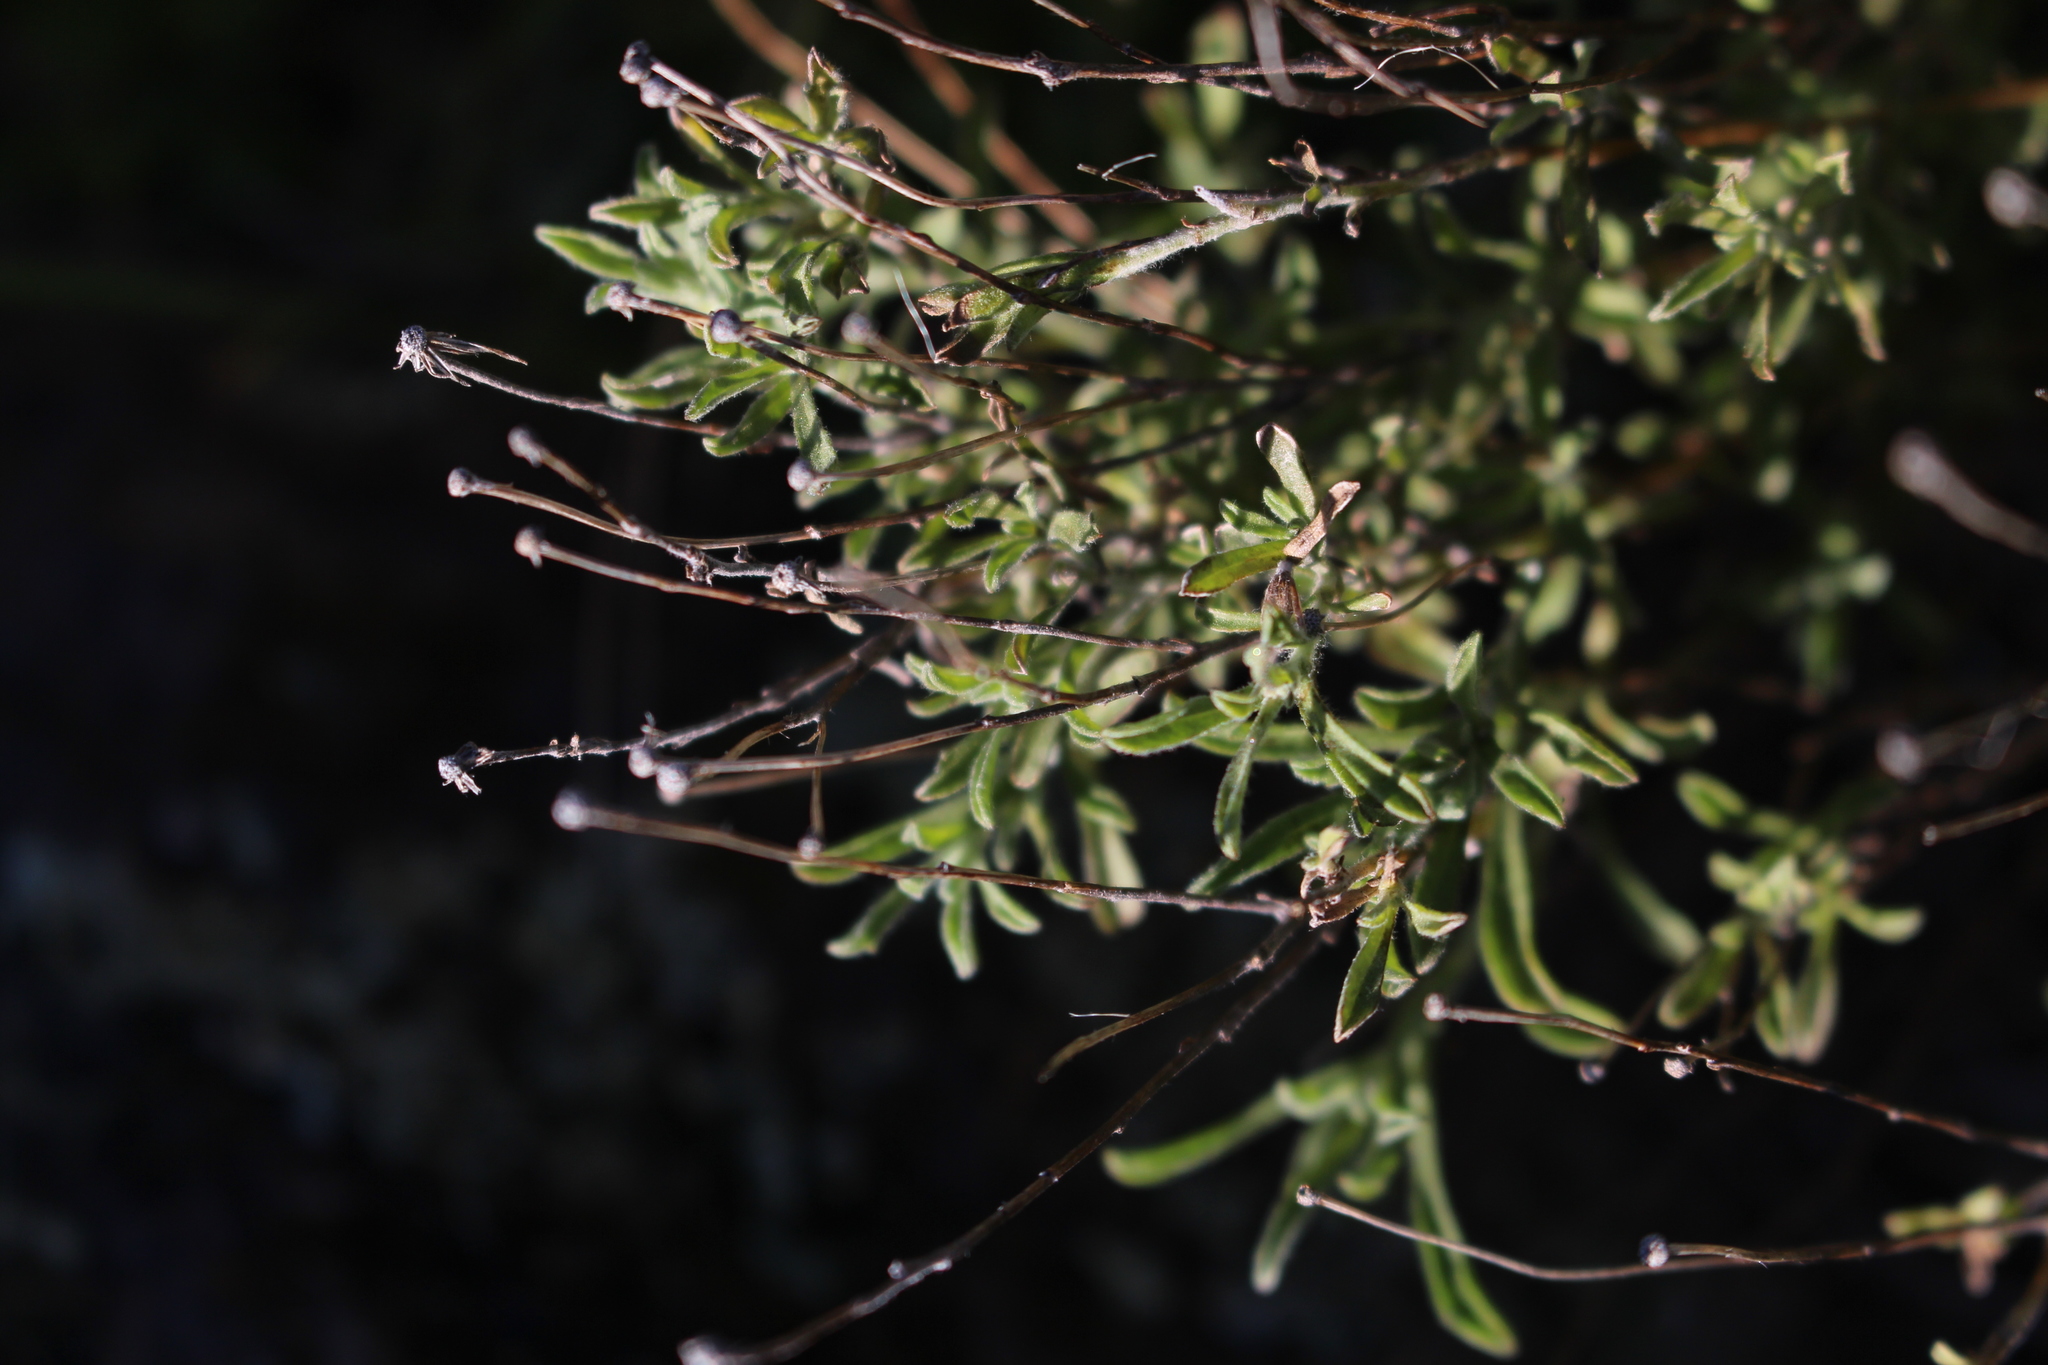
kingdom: Plantae
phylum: Tracheophyta
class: Magnoliopsida
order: Asterales
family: Asteraceae
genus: Vittadinia
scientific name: Vittadinia gracilis
